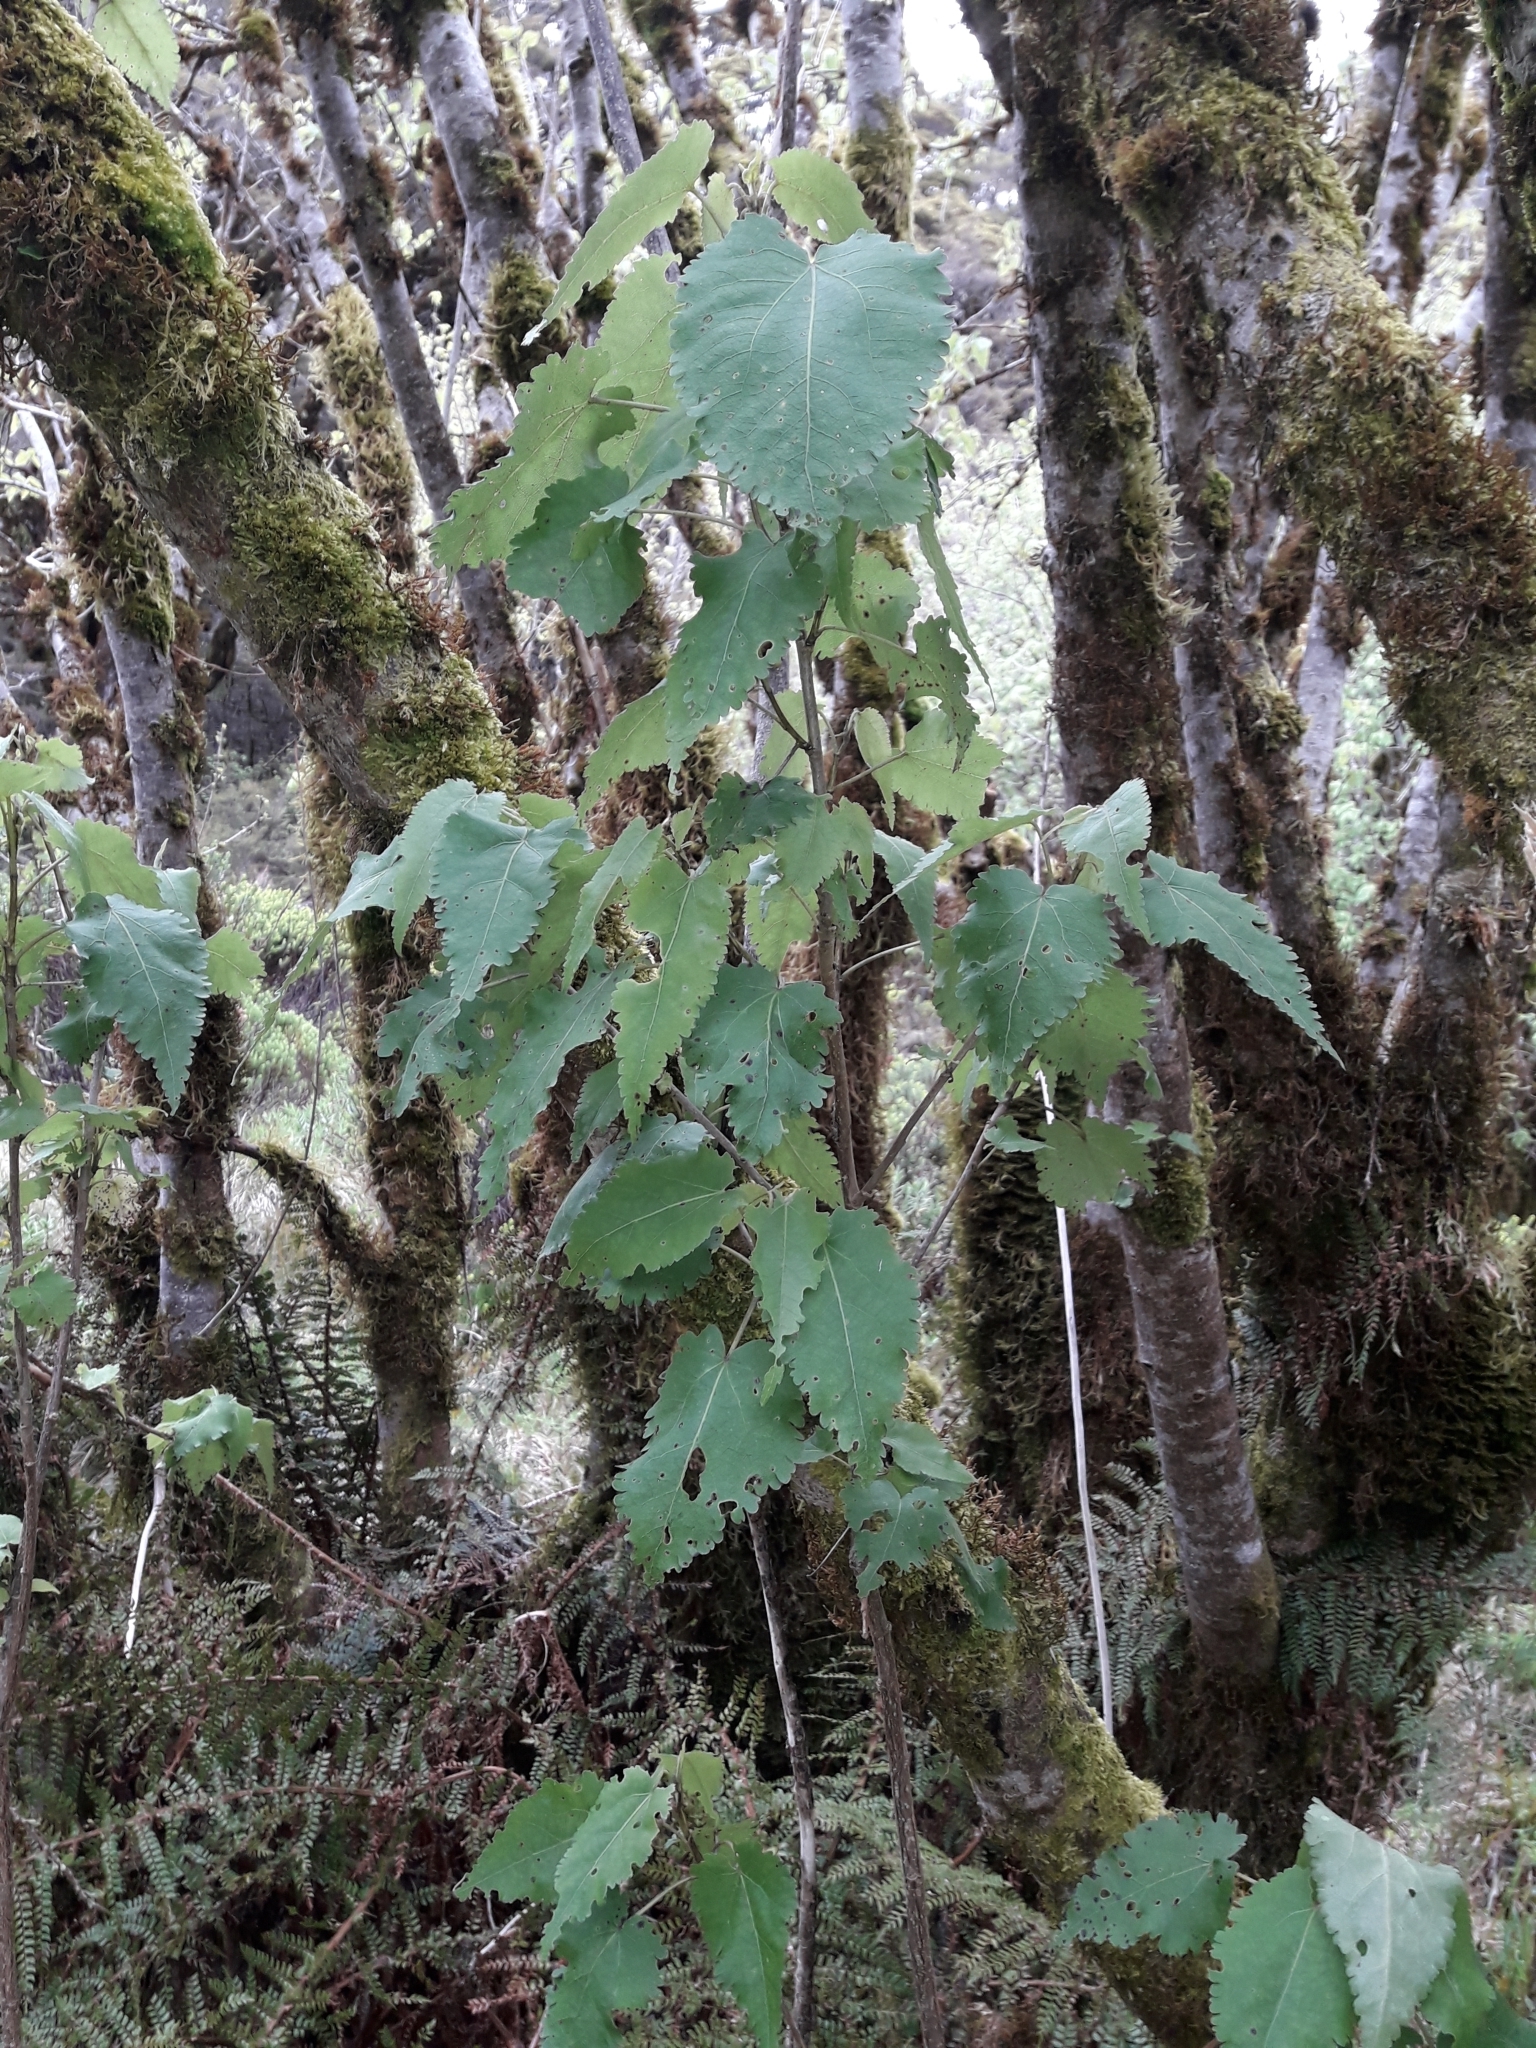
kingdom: Plantae
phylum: Tracheophyta
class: Magnoliopsida
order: Malvales
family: Malvaceae
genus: Hoheria
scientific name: Hoheria glabrata
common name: Mountain-ribbon
